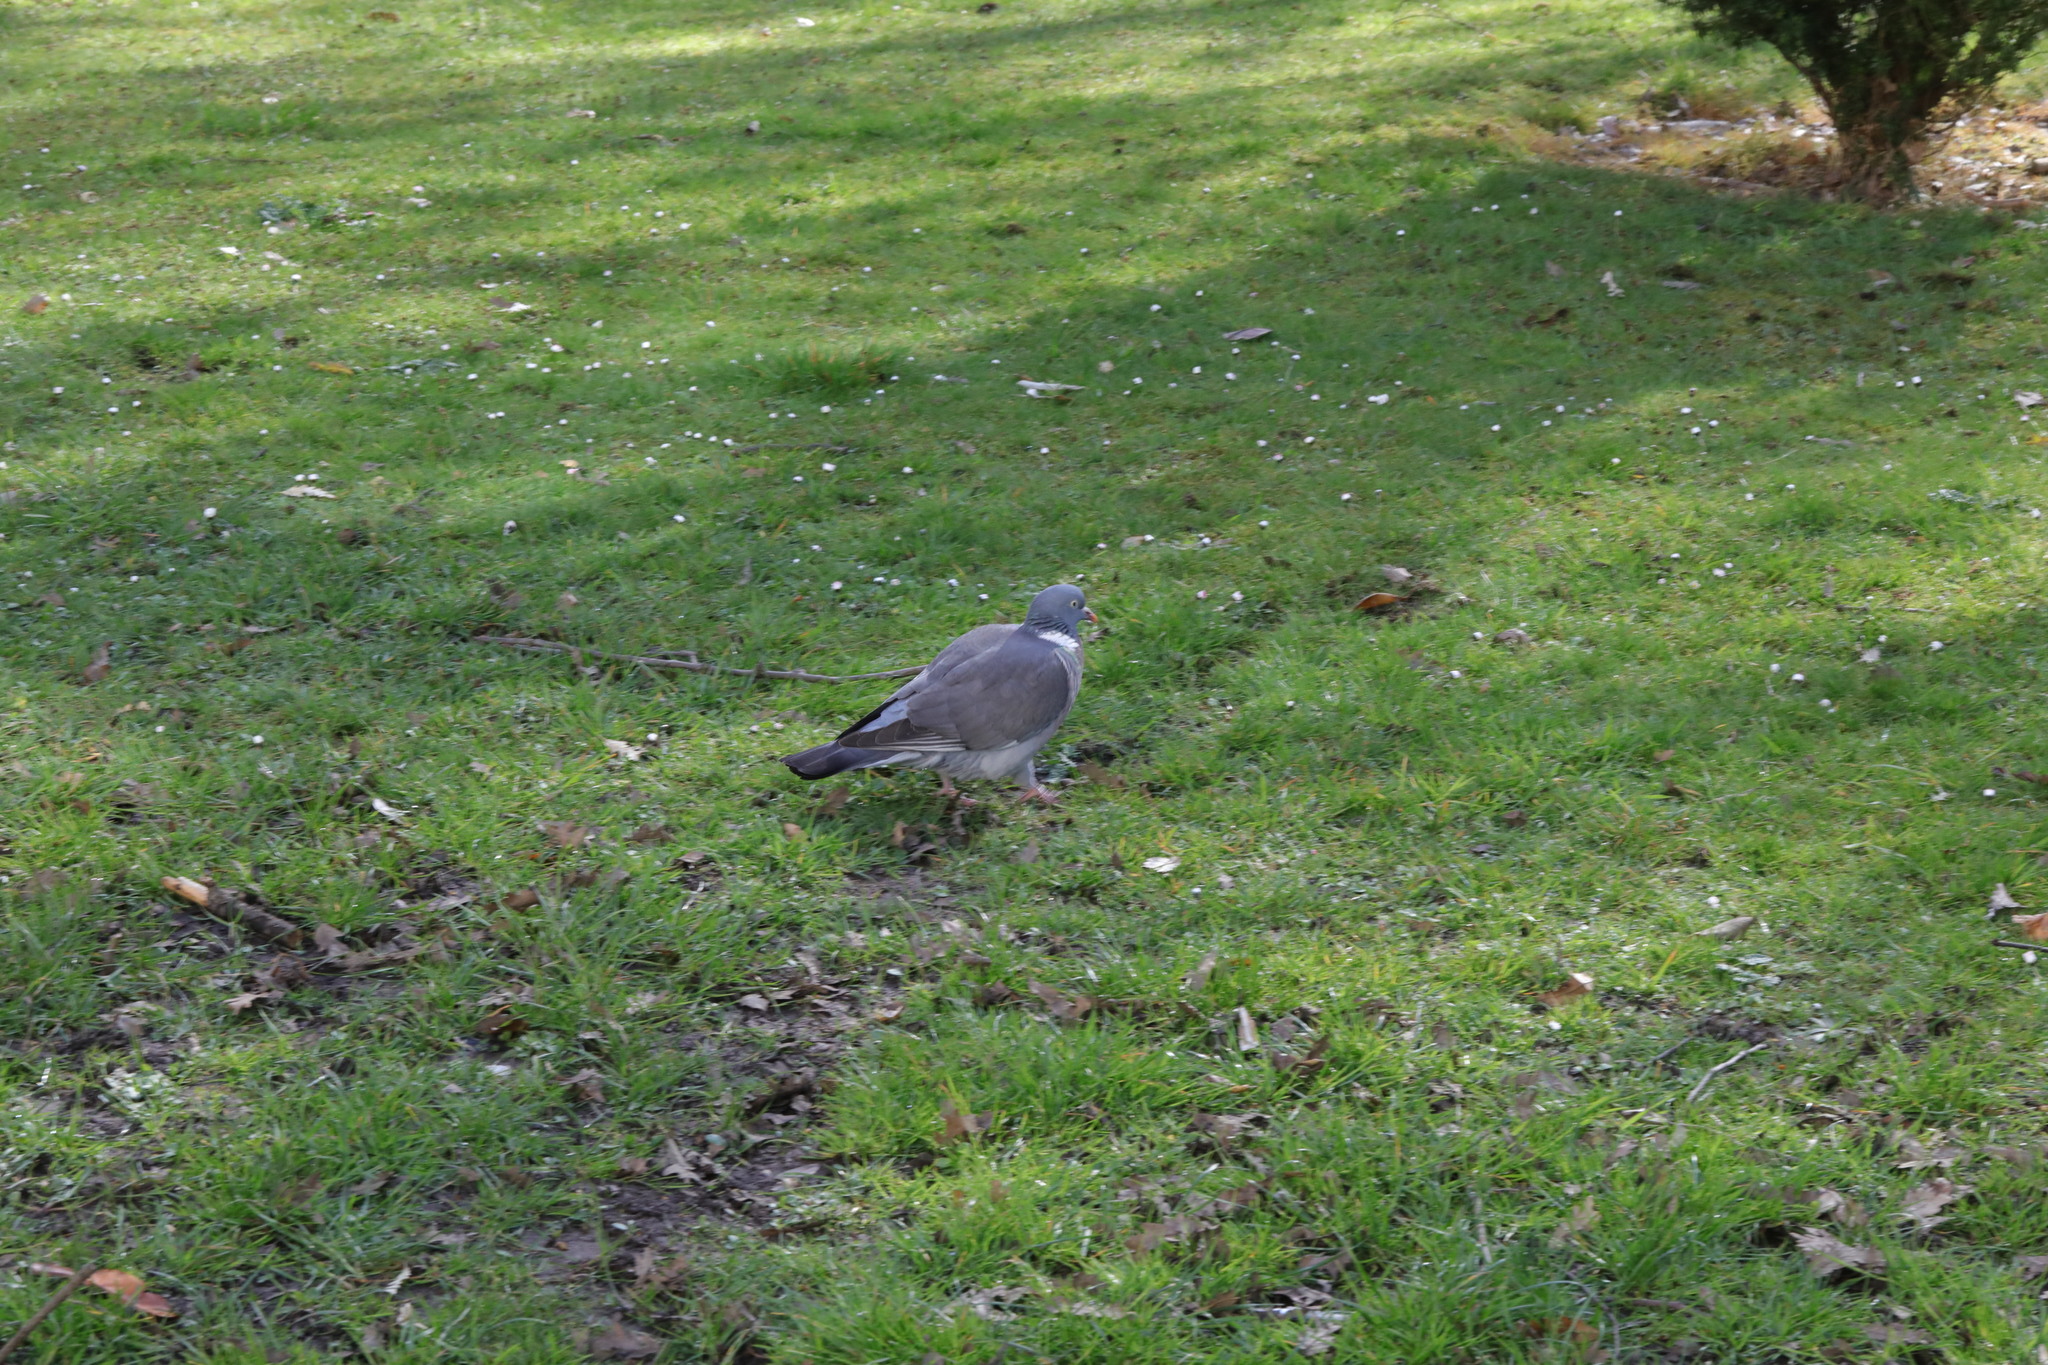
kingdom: Animalia
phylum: Chordata
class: Aves
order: Columbiformes
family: Columbidae
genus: Columba
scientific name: Columba palumbus
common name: Common wood pigeon
